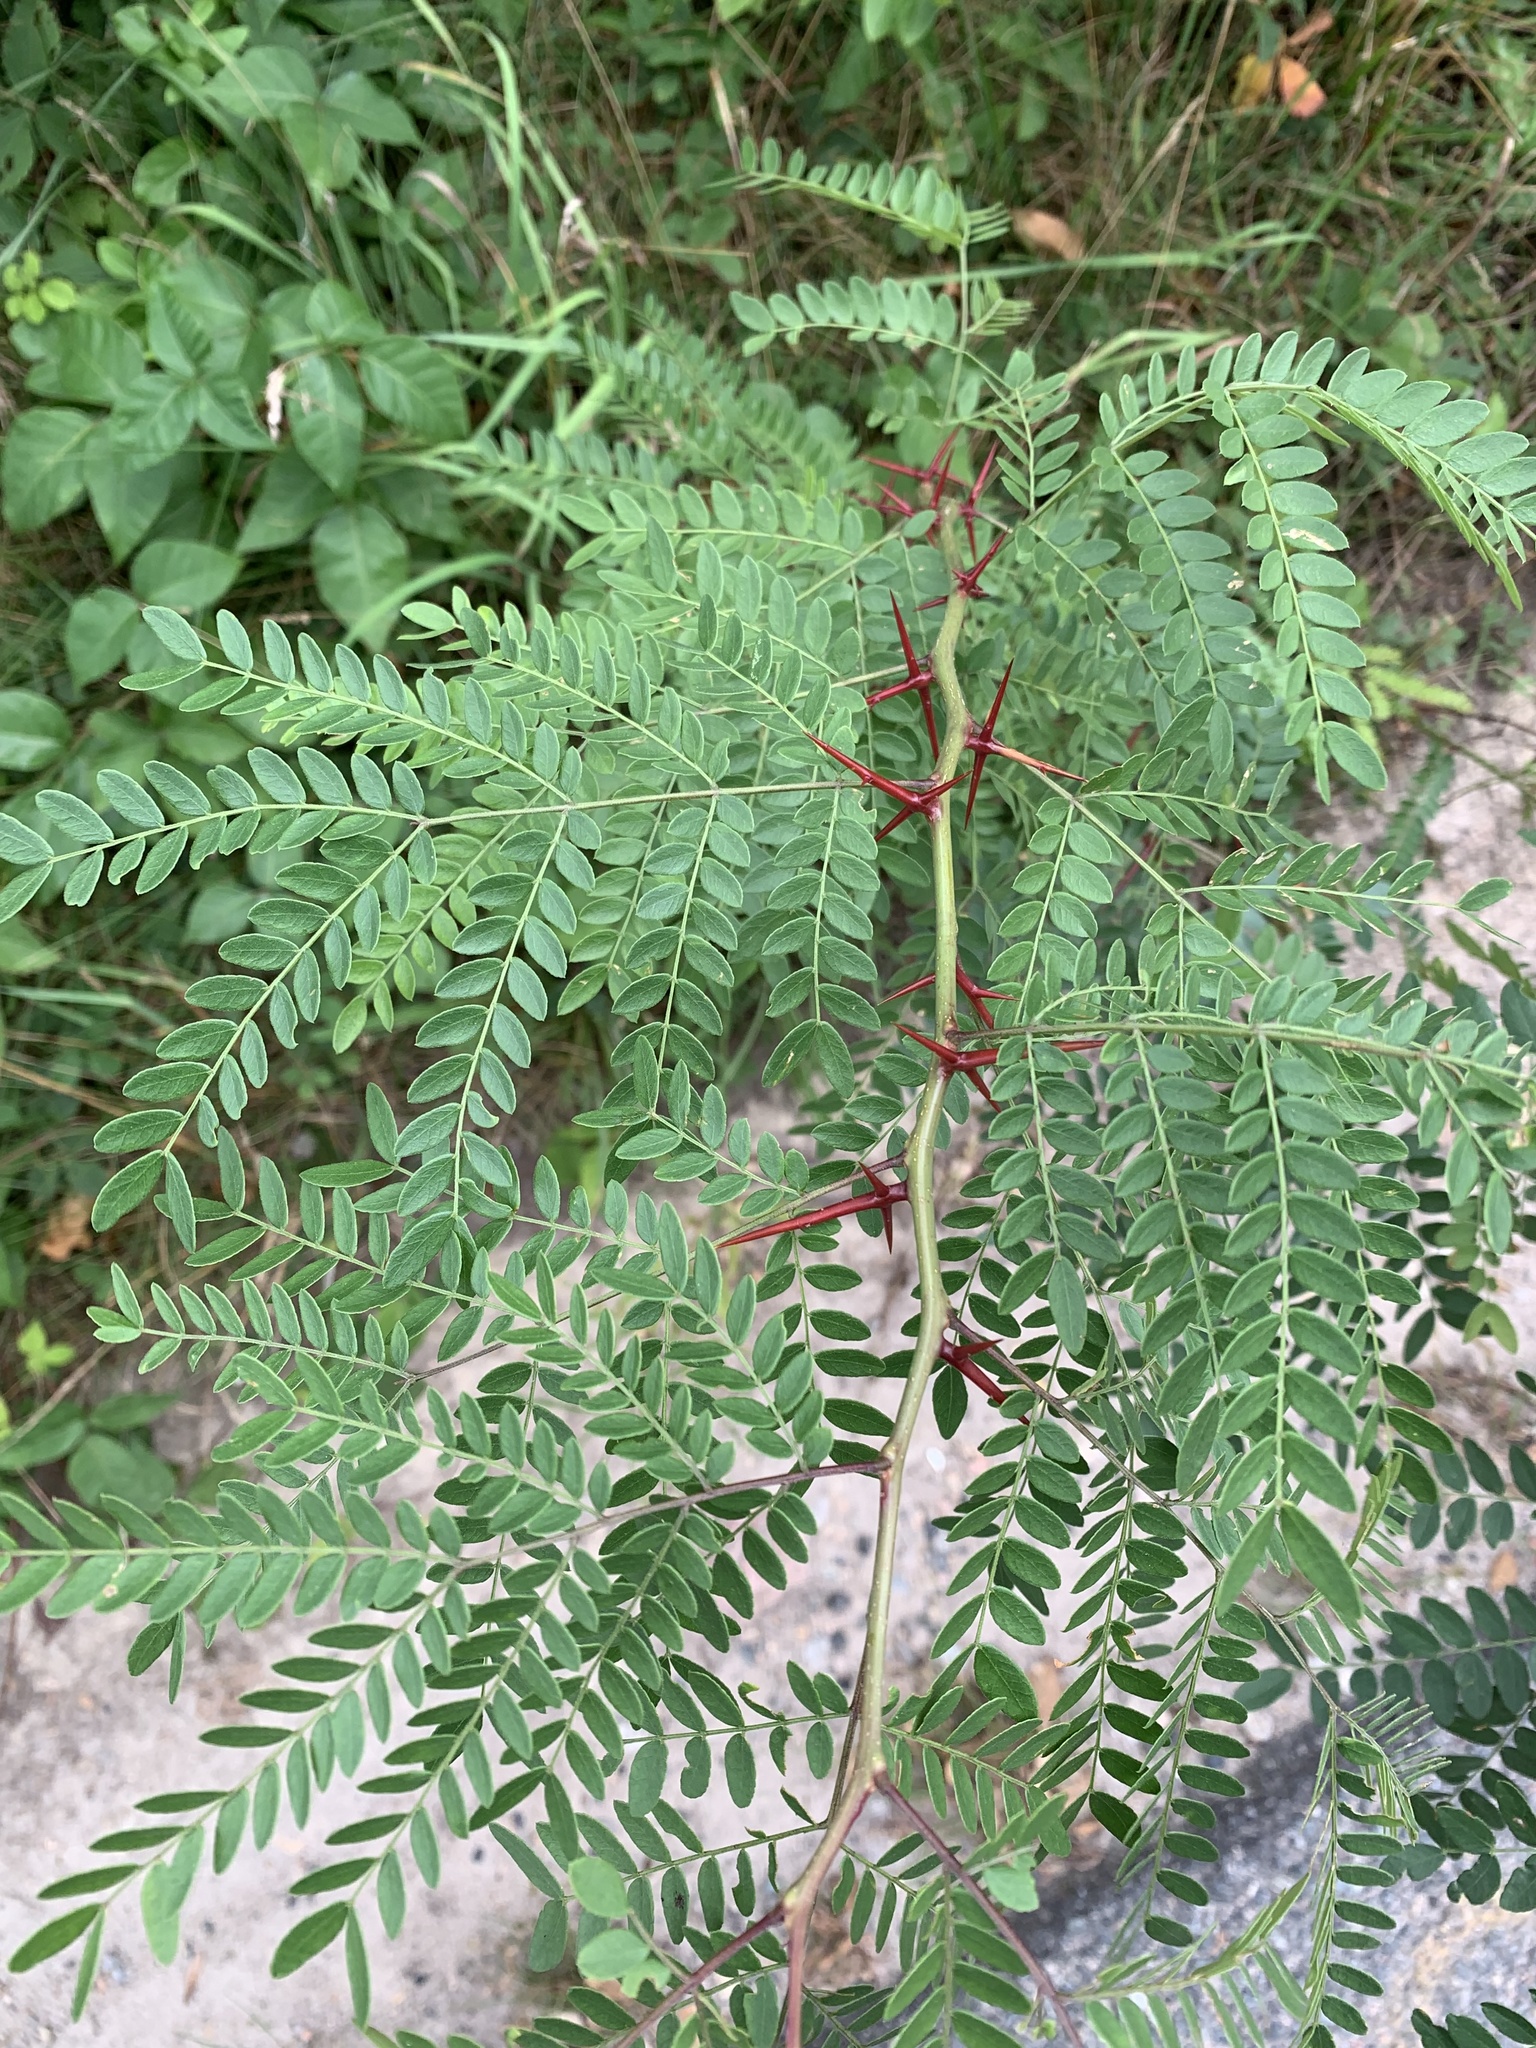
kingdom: Plantae
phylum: Tracheophyta
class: Magnoliopsida
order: Fabales
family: Fabaceae
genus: Gleditsia
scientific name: Gleditsia triacanthos
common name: Common honeylocust
